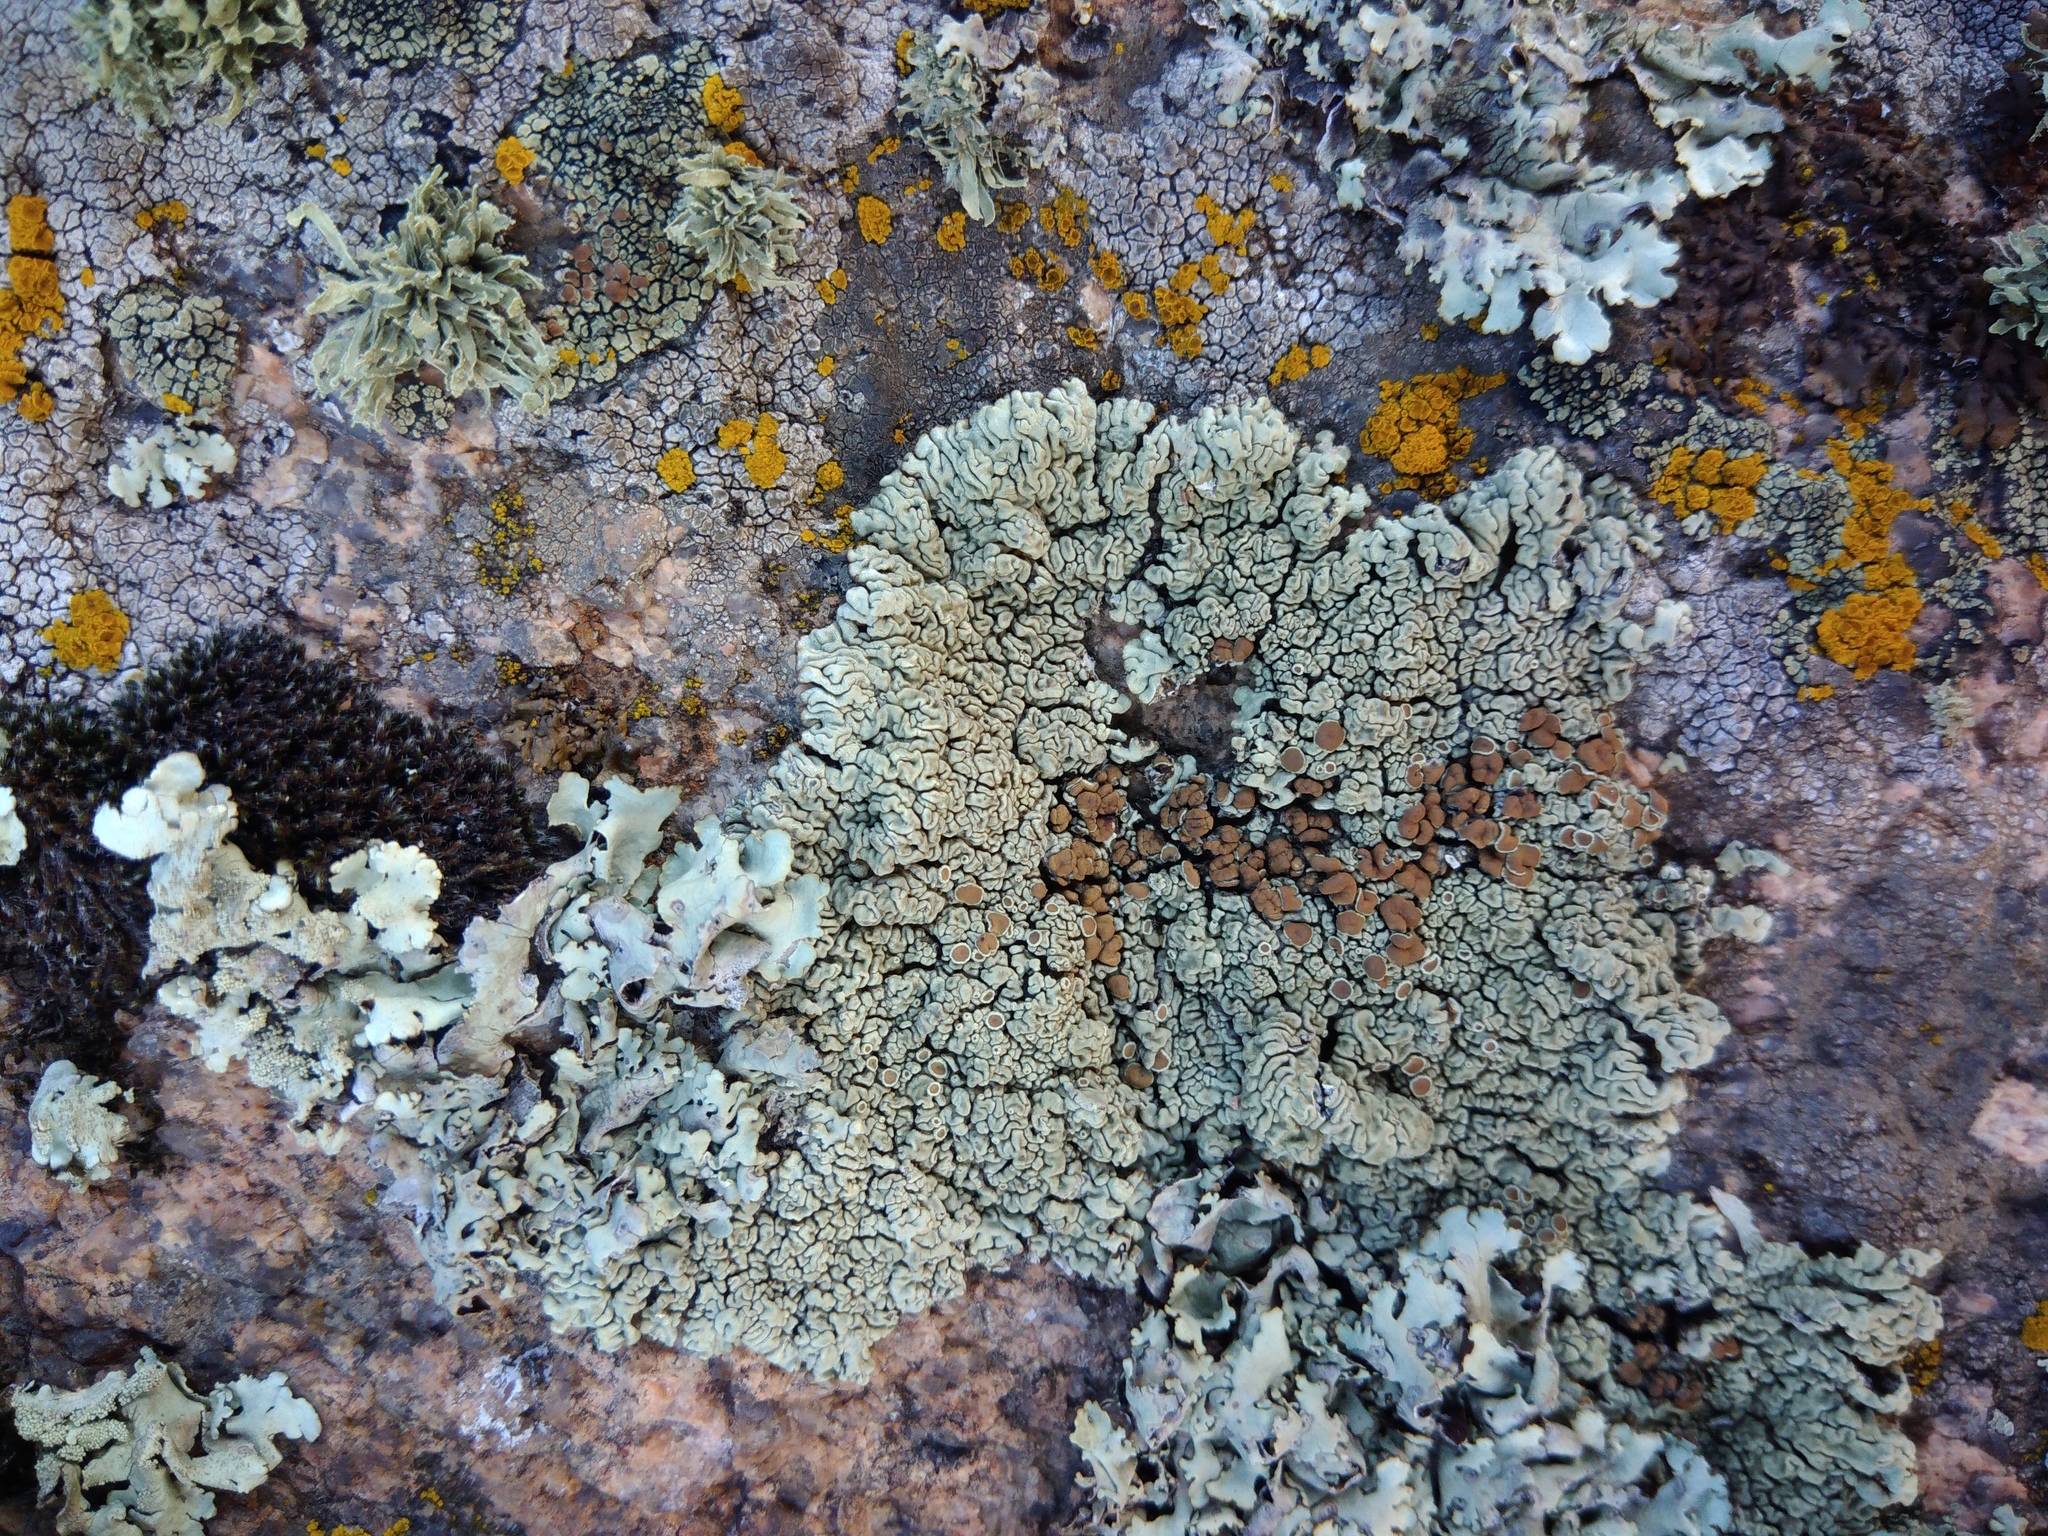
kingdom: Fungi
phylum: Ascomycota
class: Lecanoromycetes
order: Lecanorales
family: Lecanoraceae
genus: Protoparmeliopsis
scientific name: Protoparmeliopsis garovaglii
